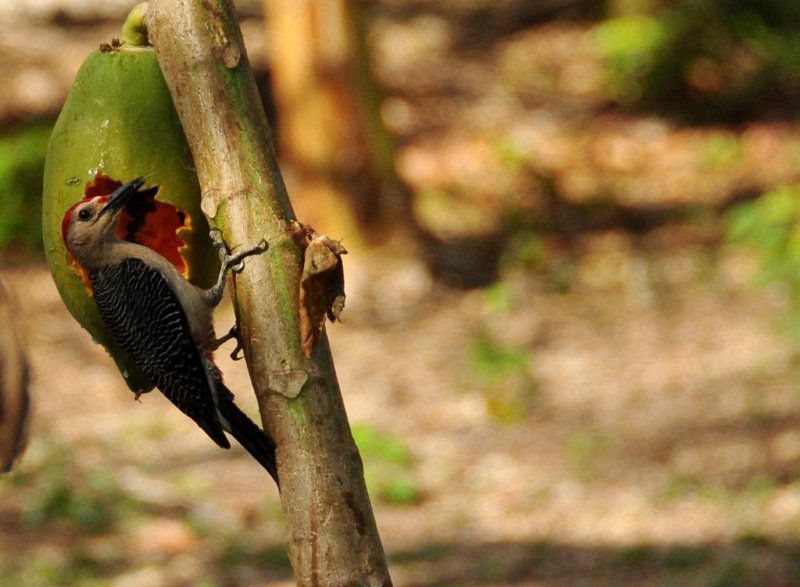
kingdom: Animalia
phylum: Chordata
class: Aves
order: Piciformes
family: Picidae
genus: Melanerpes
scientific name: Melanerpes aurifrons
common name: Golden-fronted woodpecker
